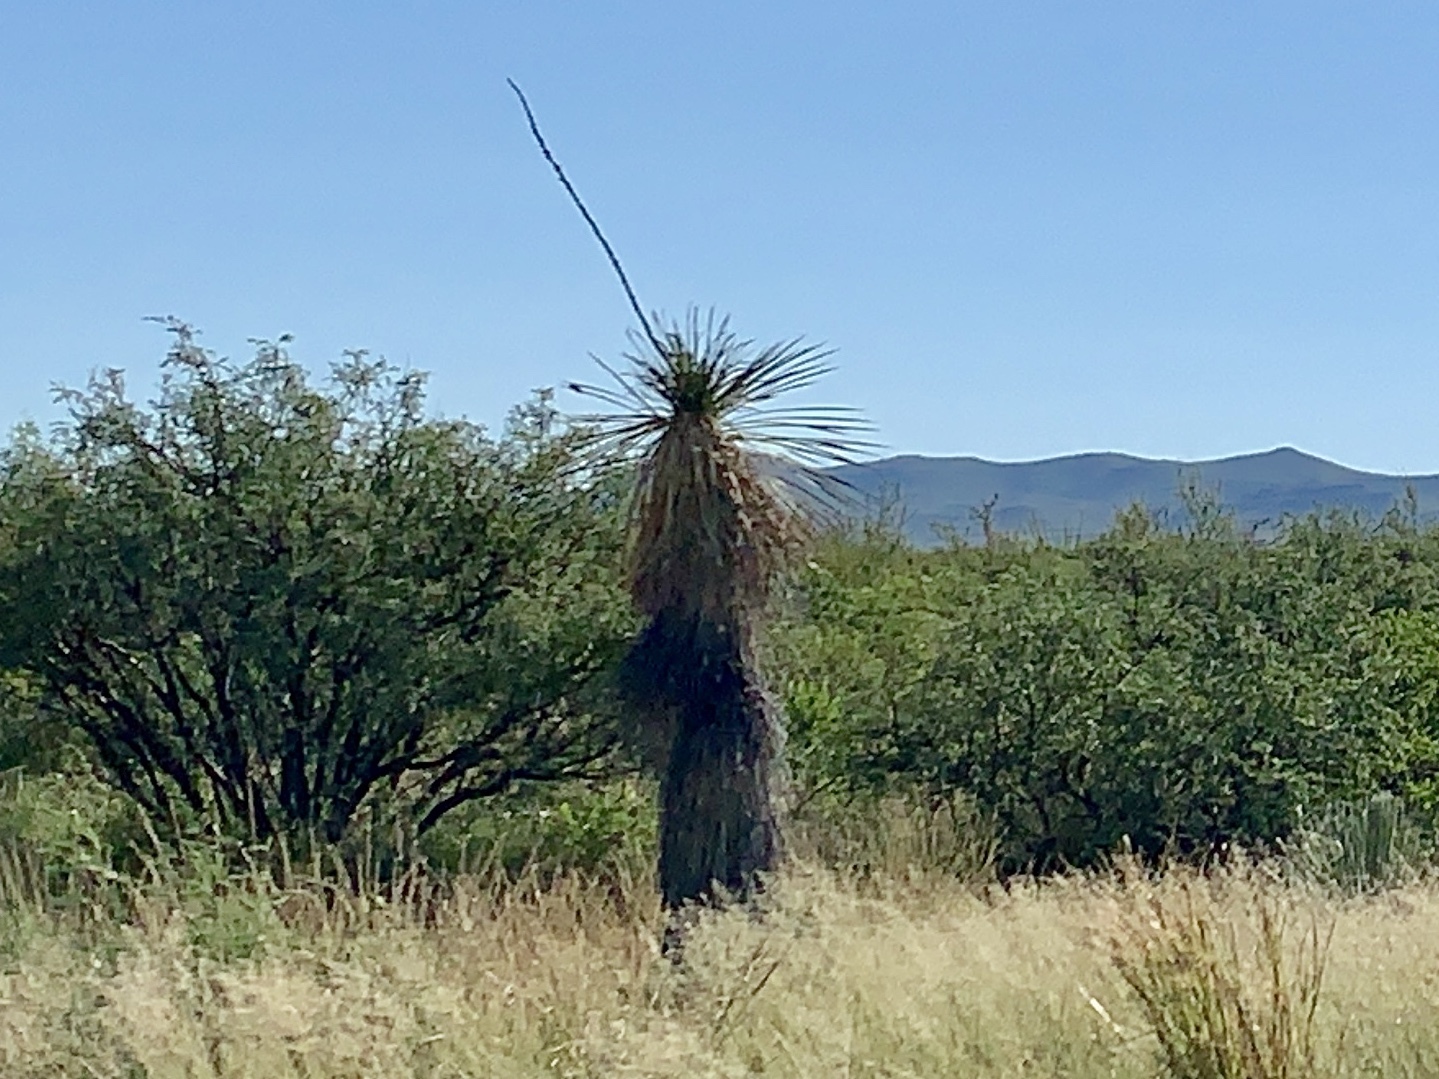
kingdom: Plantae
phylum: Tracheophyta
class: Liliopsida
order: Asparagales
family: Asparagaceae
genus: Yucca
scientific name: Yucca elata
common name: Palmella
